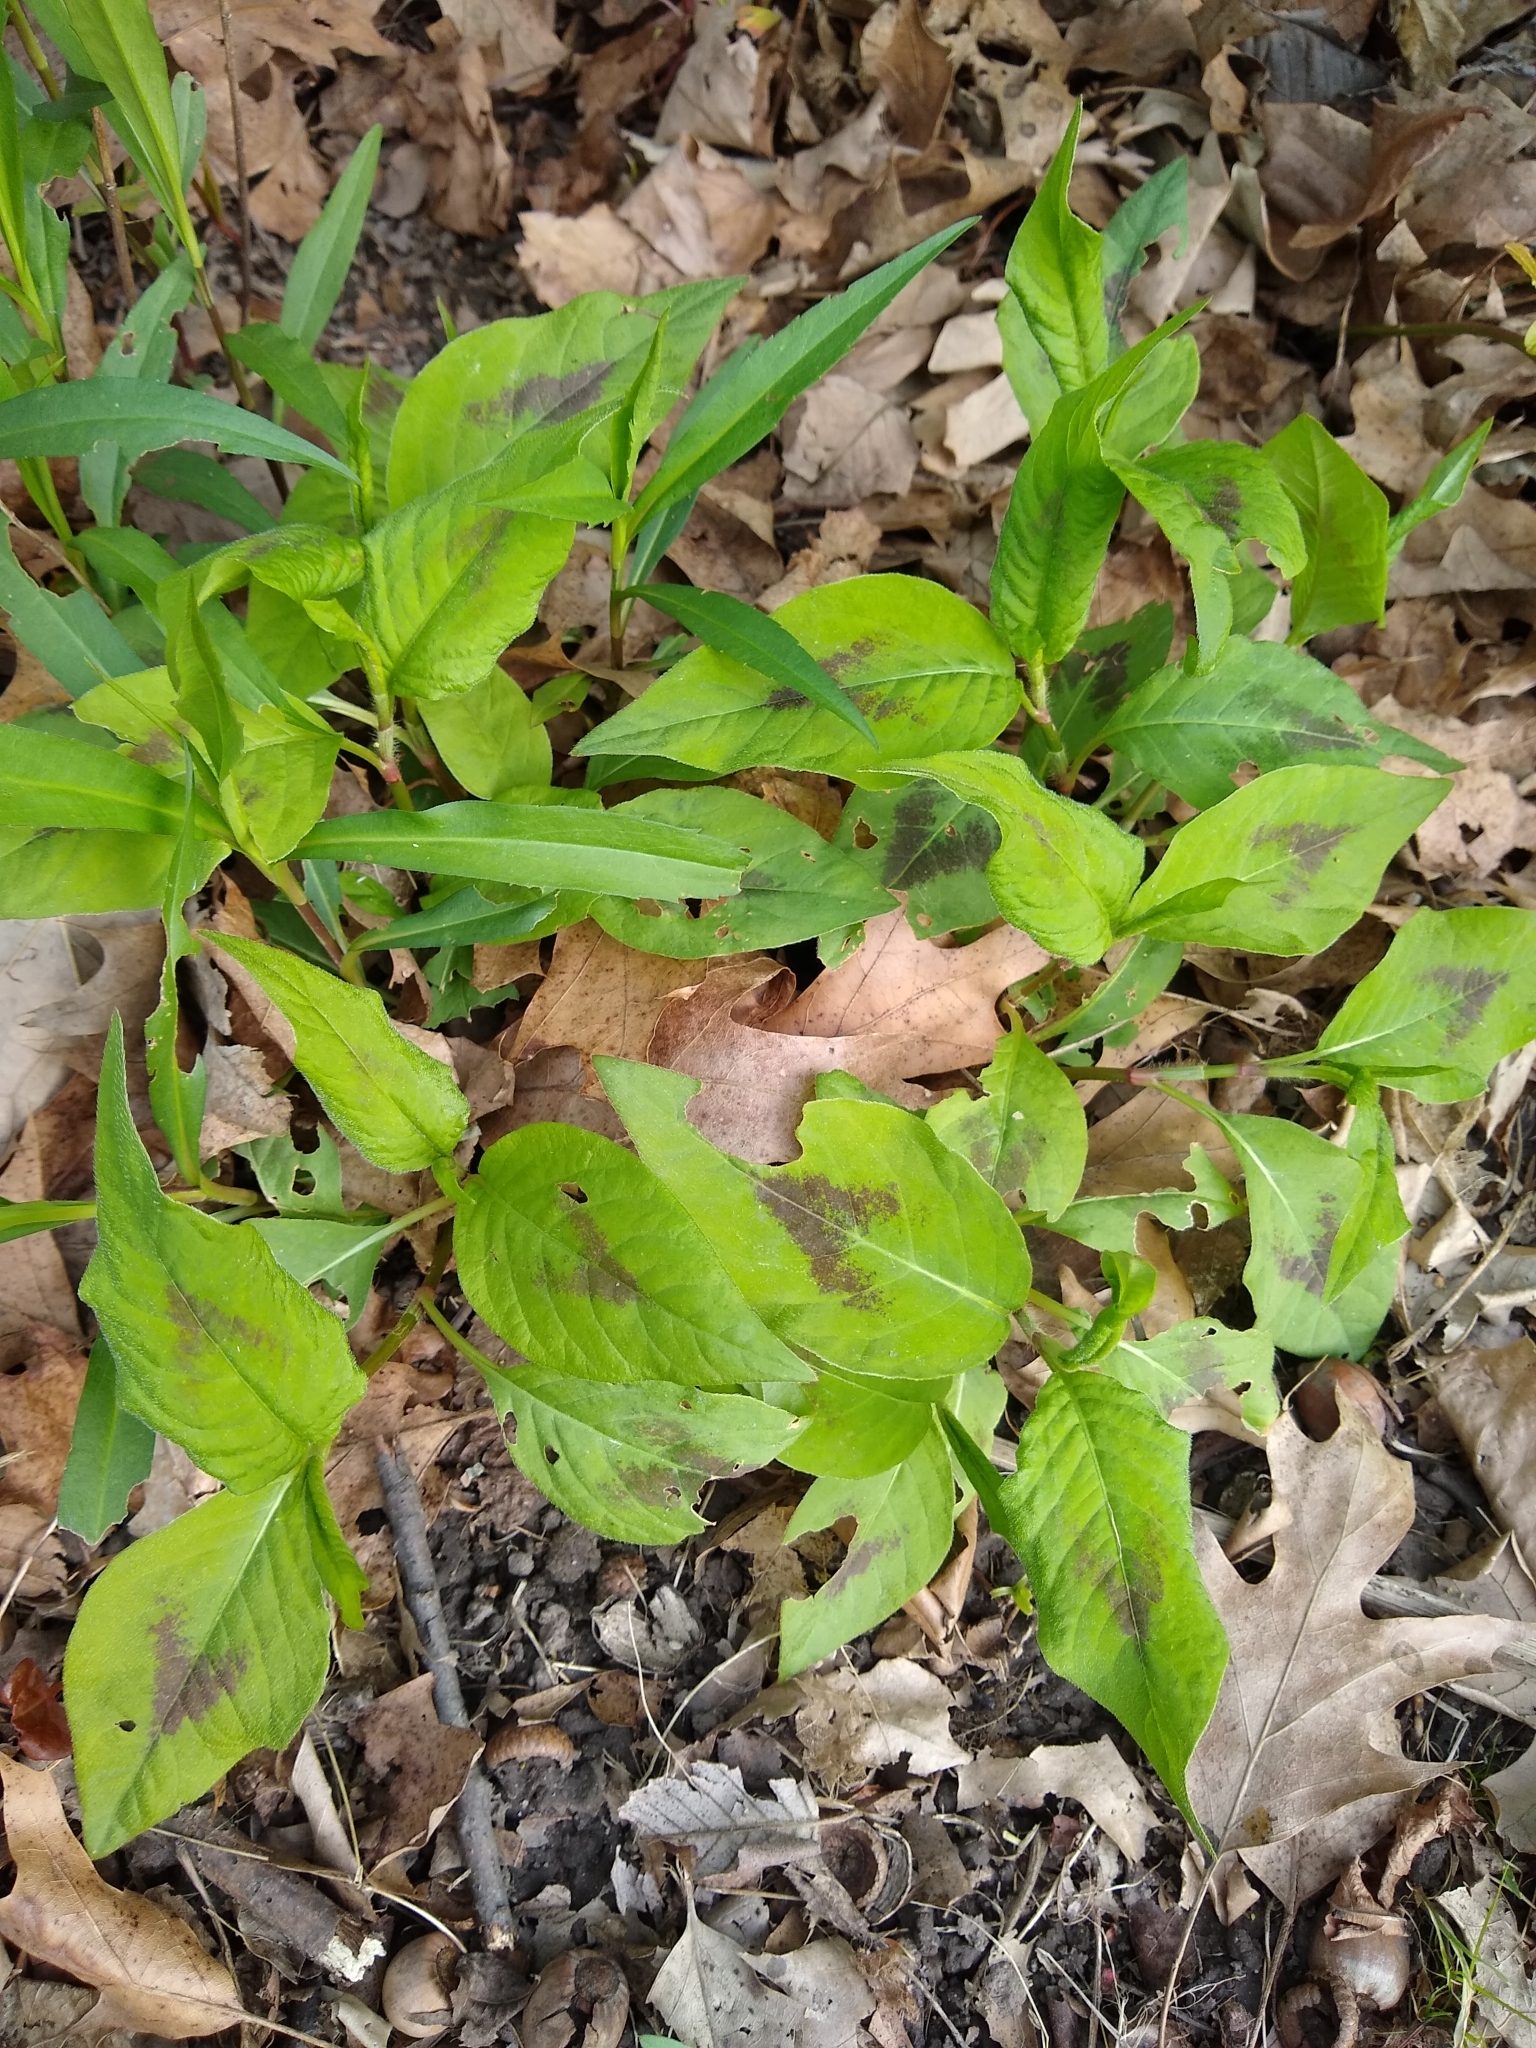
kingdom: Plantae
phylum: Tracheophyta
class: Magnoliopsida
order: Caryophyllales
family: Polygonaceae
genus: Persicaria
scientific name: Persicaria virginiana
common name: Jumpseed
